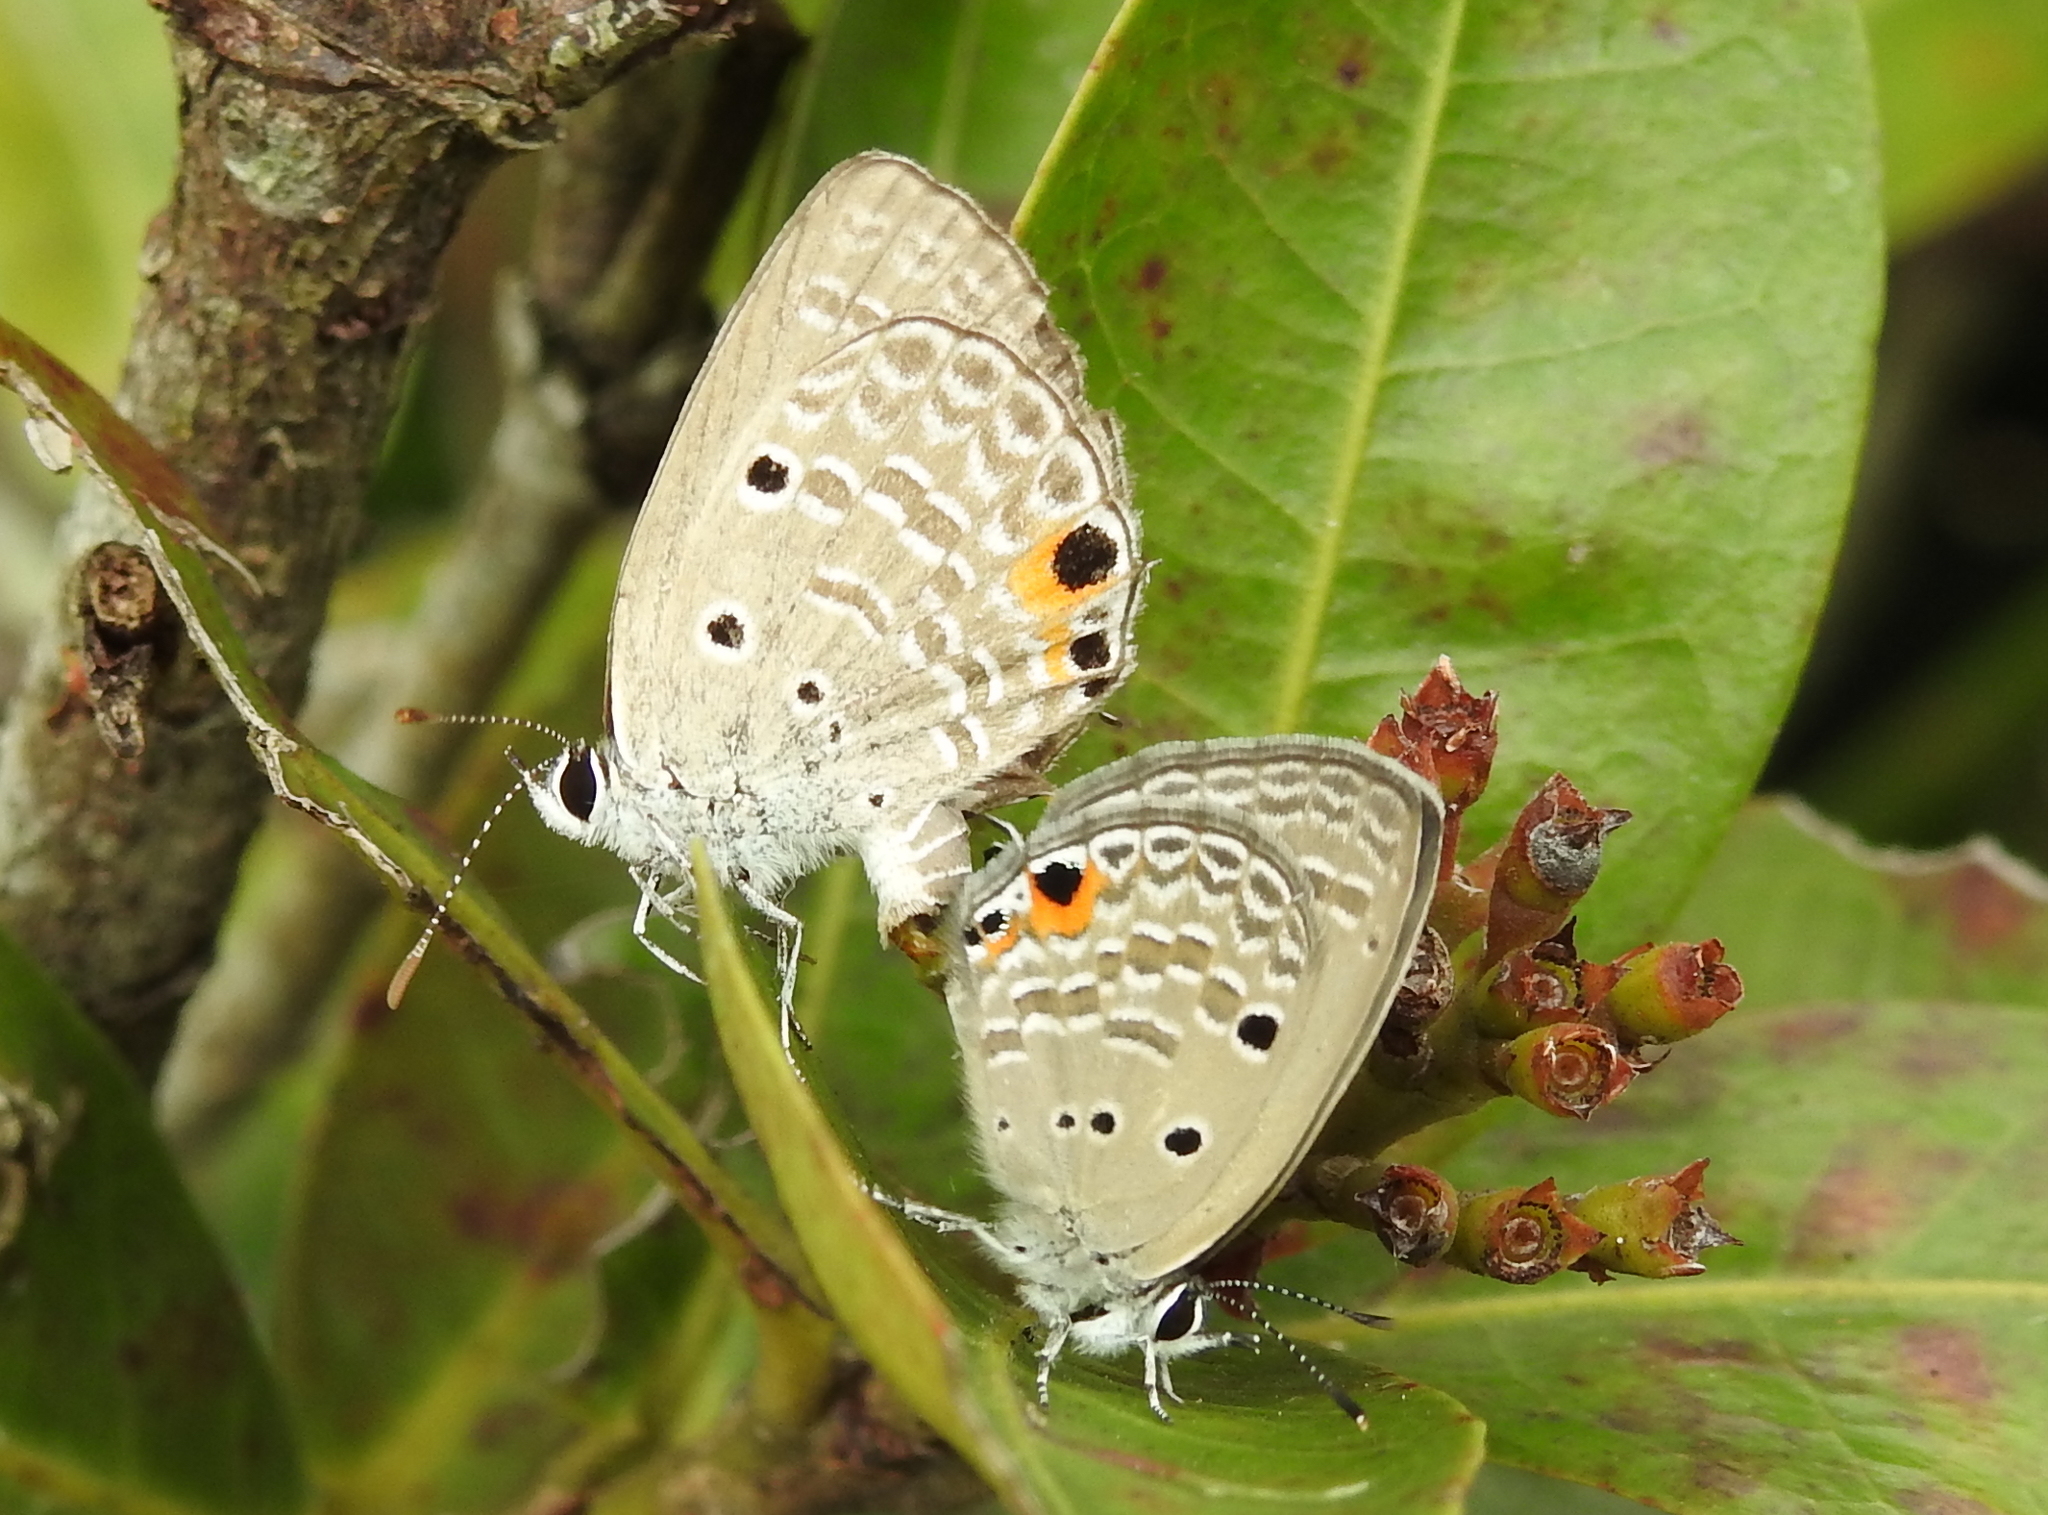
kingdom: Animalia
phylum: Arthropoda
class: Insecta
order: Lepidoptera
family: Lycaenidae
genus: Luthrodes
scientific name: Luthrodes pandava
